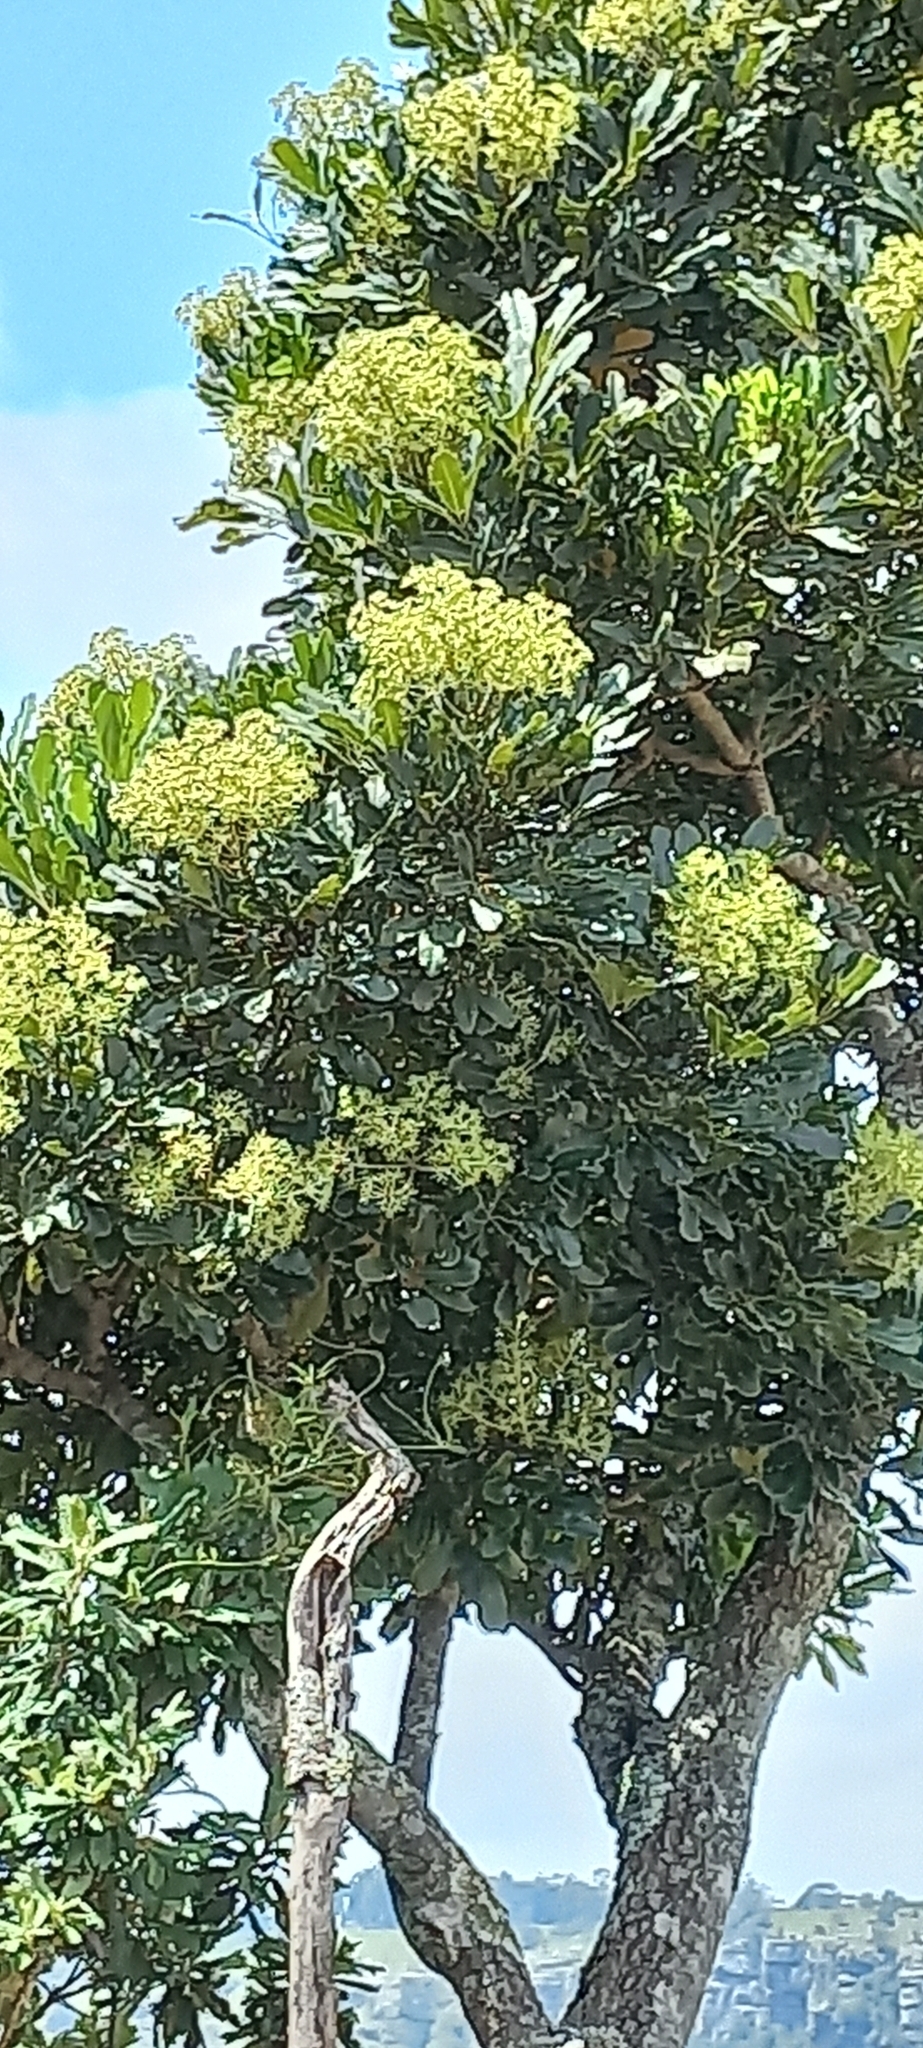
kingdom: Plantae
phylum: Tracheophyta
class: Magnoliopsida
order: Apiales
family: Araliaceae
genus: Neocussonia
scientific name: Neocussonia umbellifera
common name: False cabbage tree
